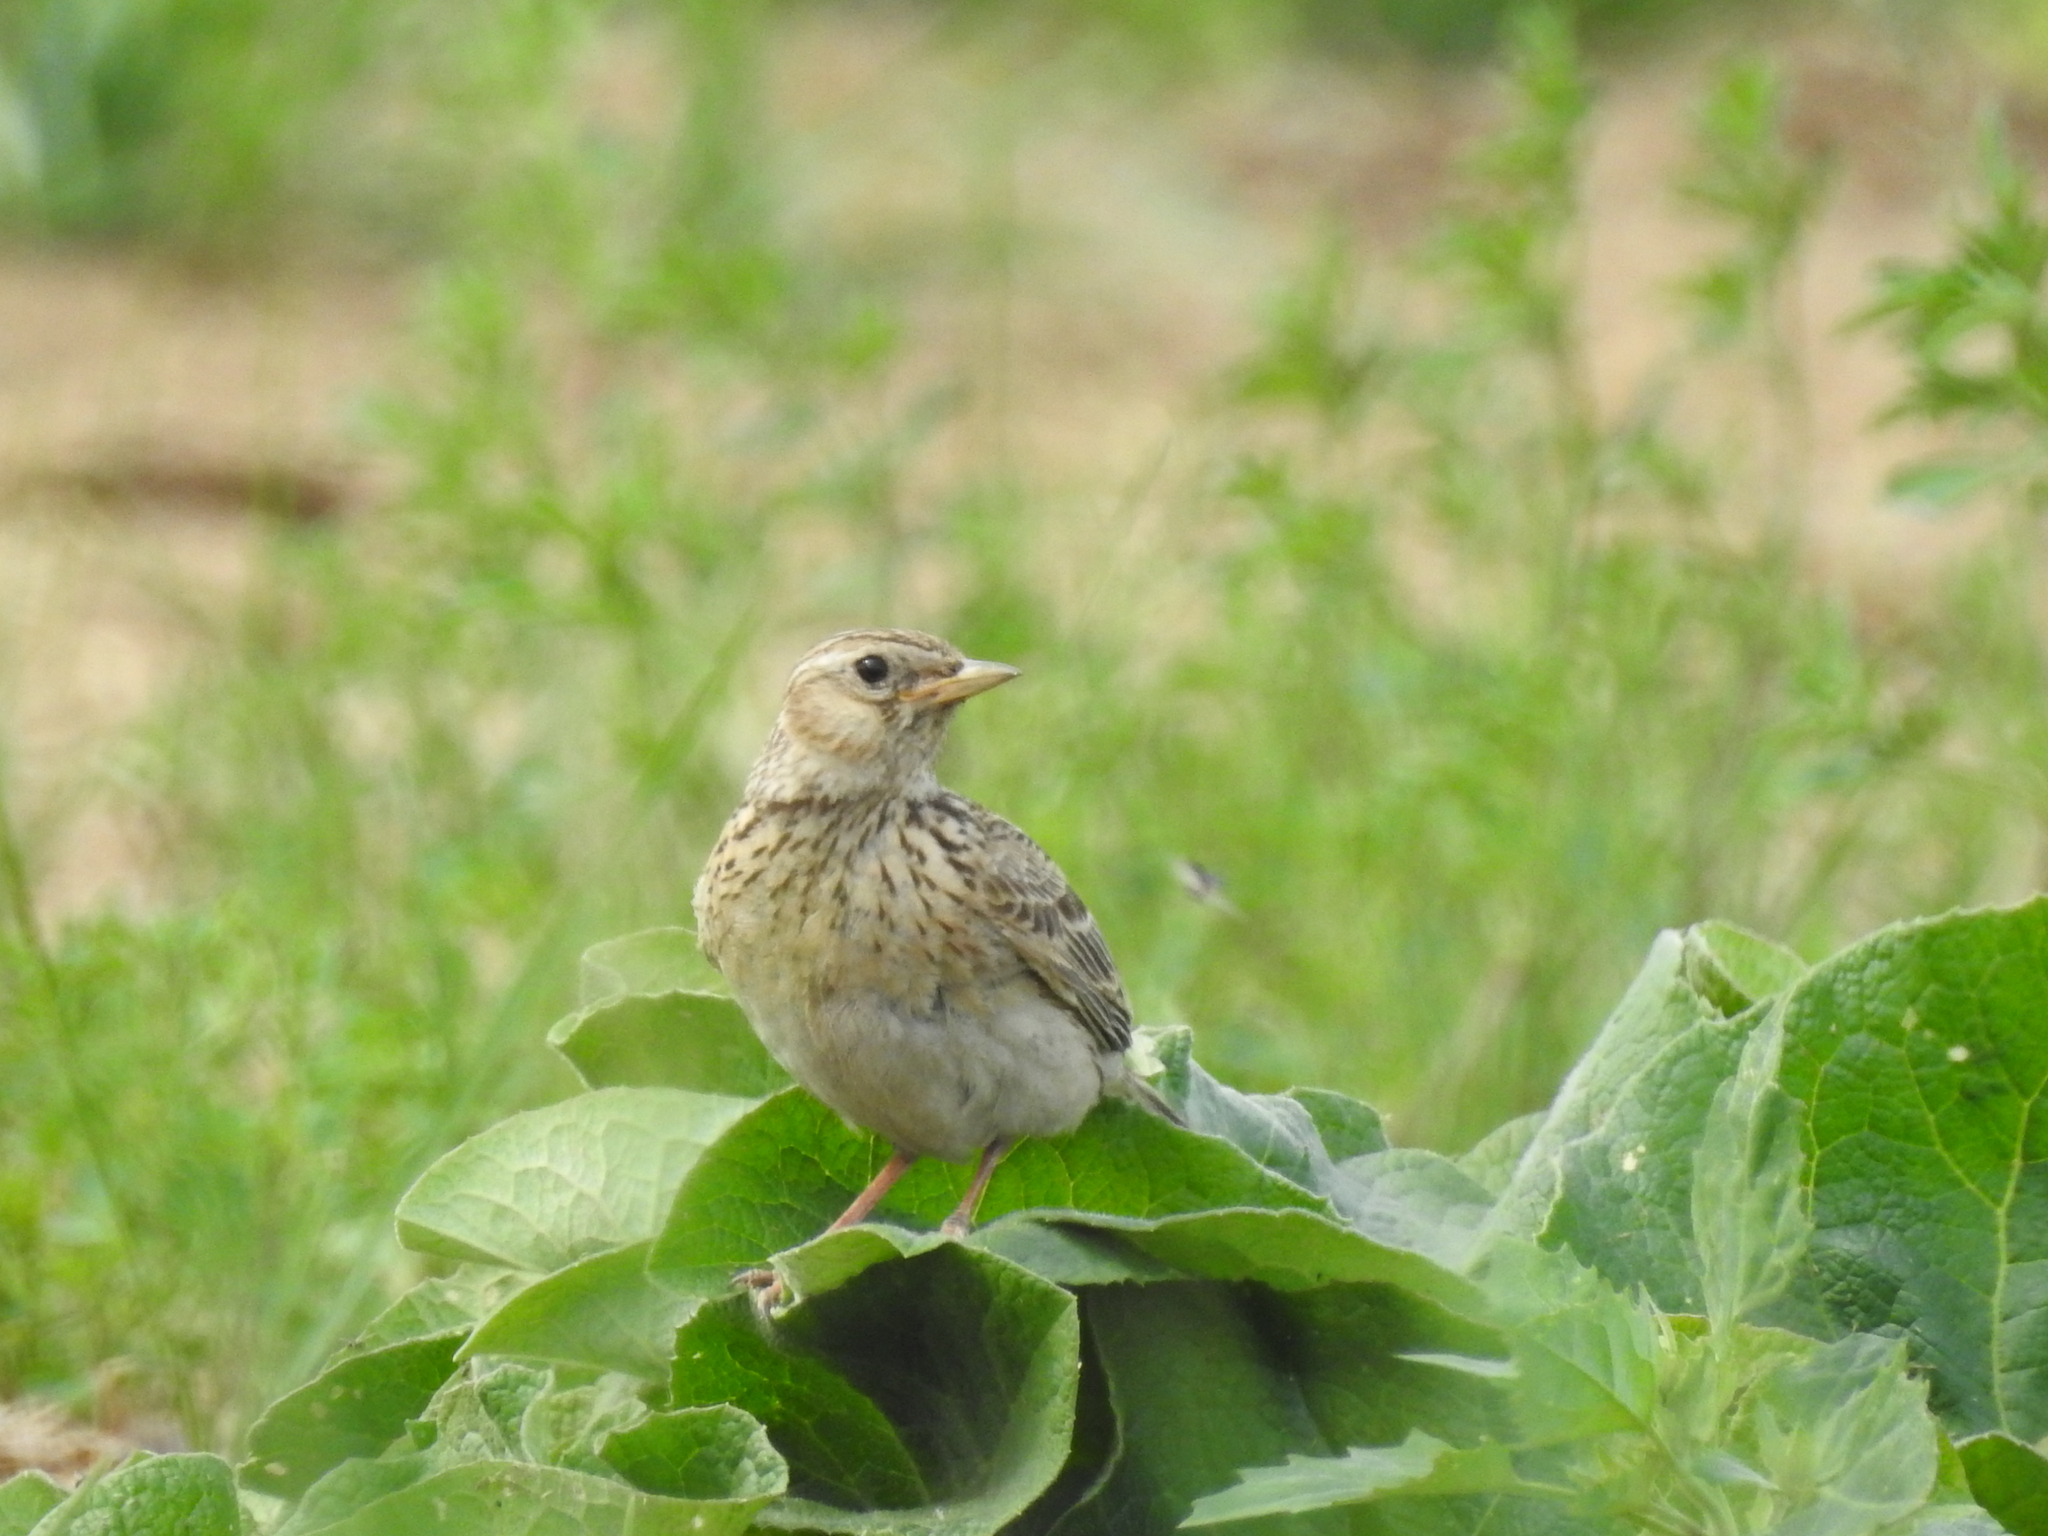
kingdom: Animalia
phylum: Chordata
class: Aves
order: Passeriformes
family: Alaudidae
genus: Alauda
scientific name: Alauda arvensis
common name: Eurasian skylark
